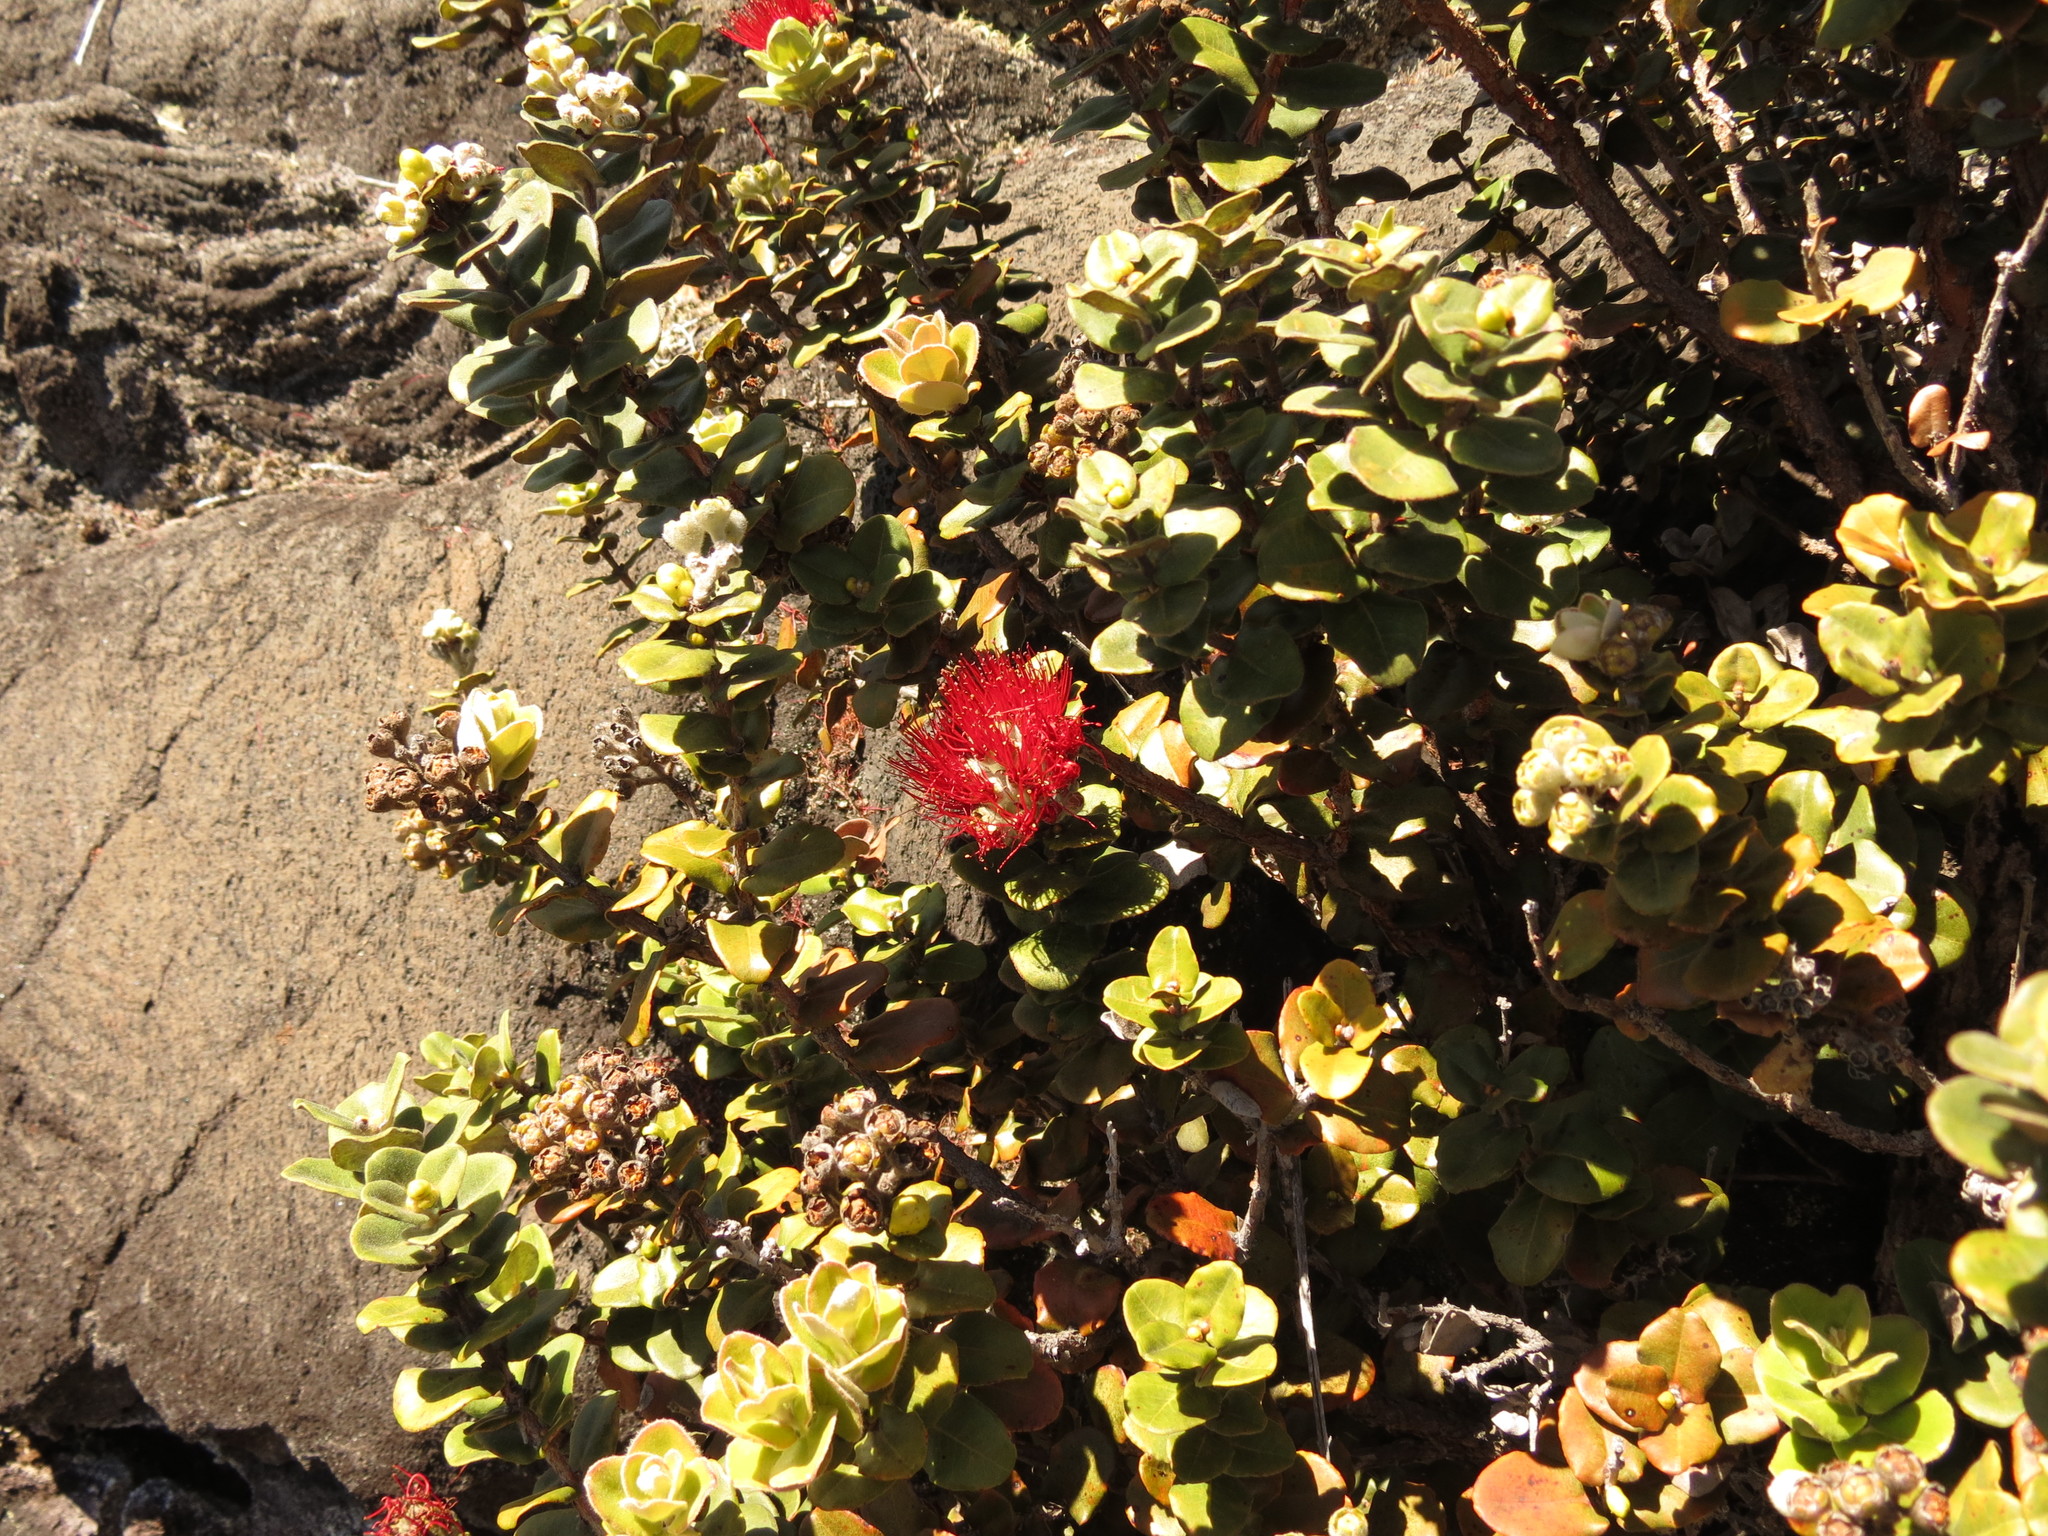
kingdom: Plantae
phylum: Tracheophyta
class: Magnoliopsida
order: Myrtales
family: Myrtaceae
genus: Metrosideros
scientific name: Metrosideros polymorpha
